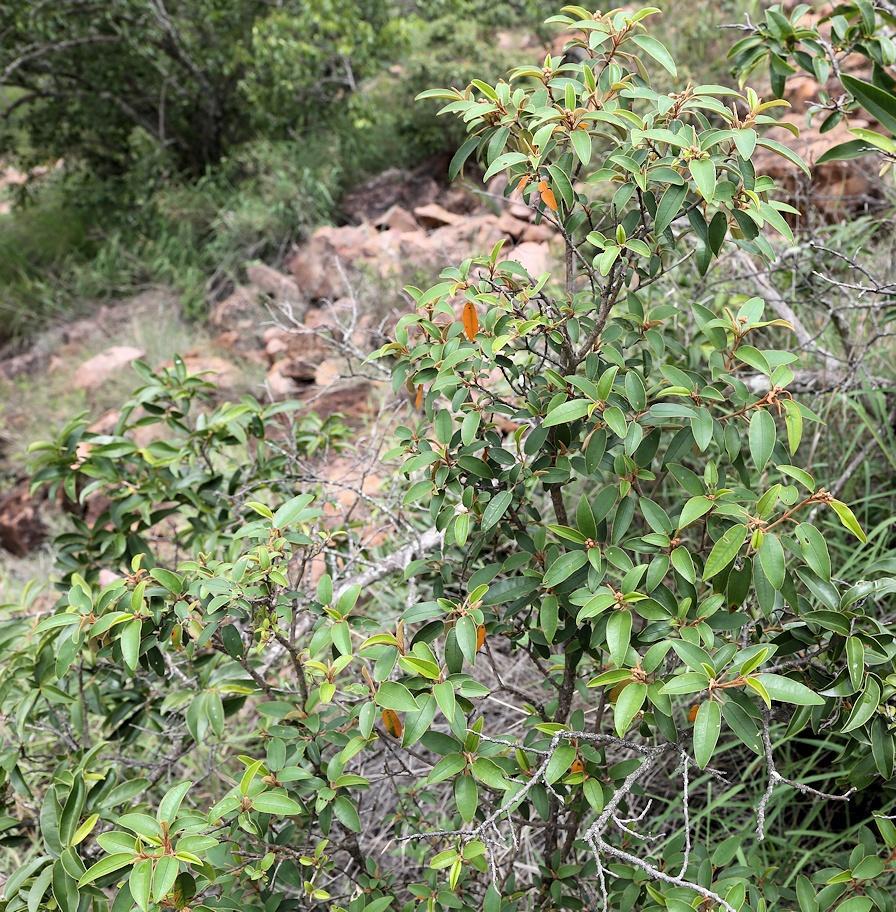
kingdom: Plantae
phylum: Tracheophyta
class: Magnoliopsida
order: Malpighiales
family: Euphorbiaceae
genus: Croton
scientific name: Croton gratissimus
